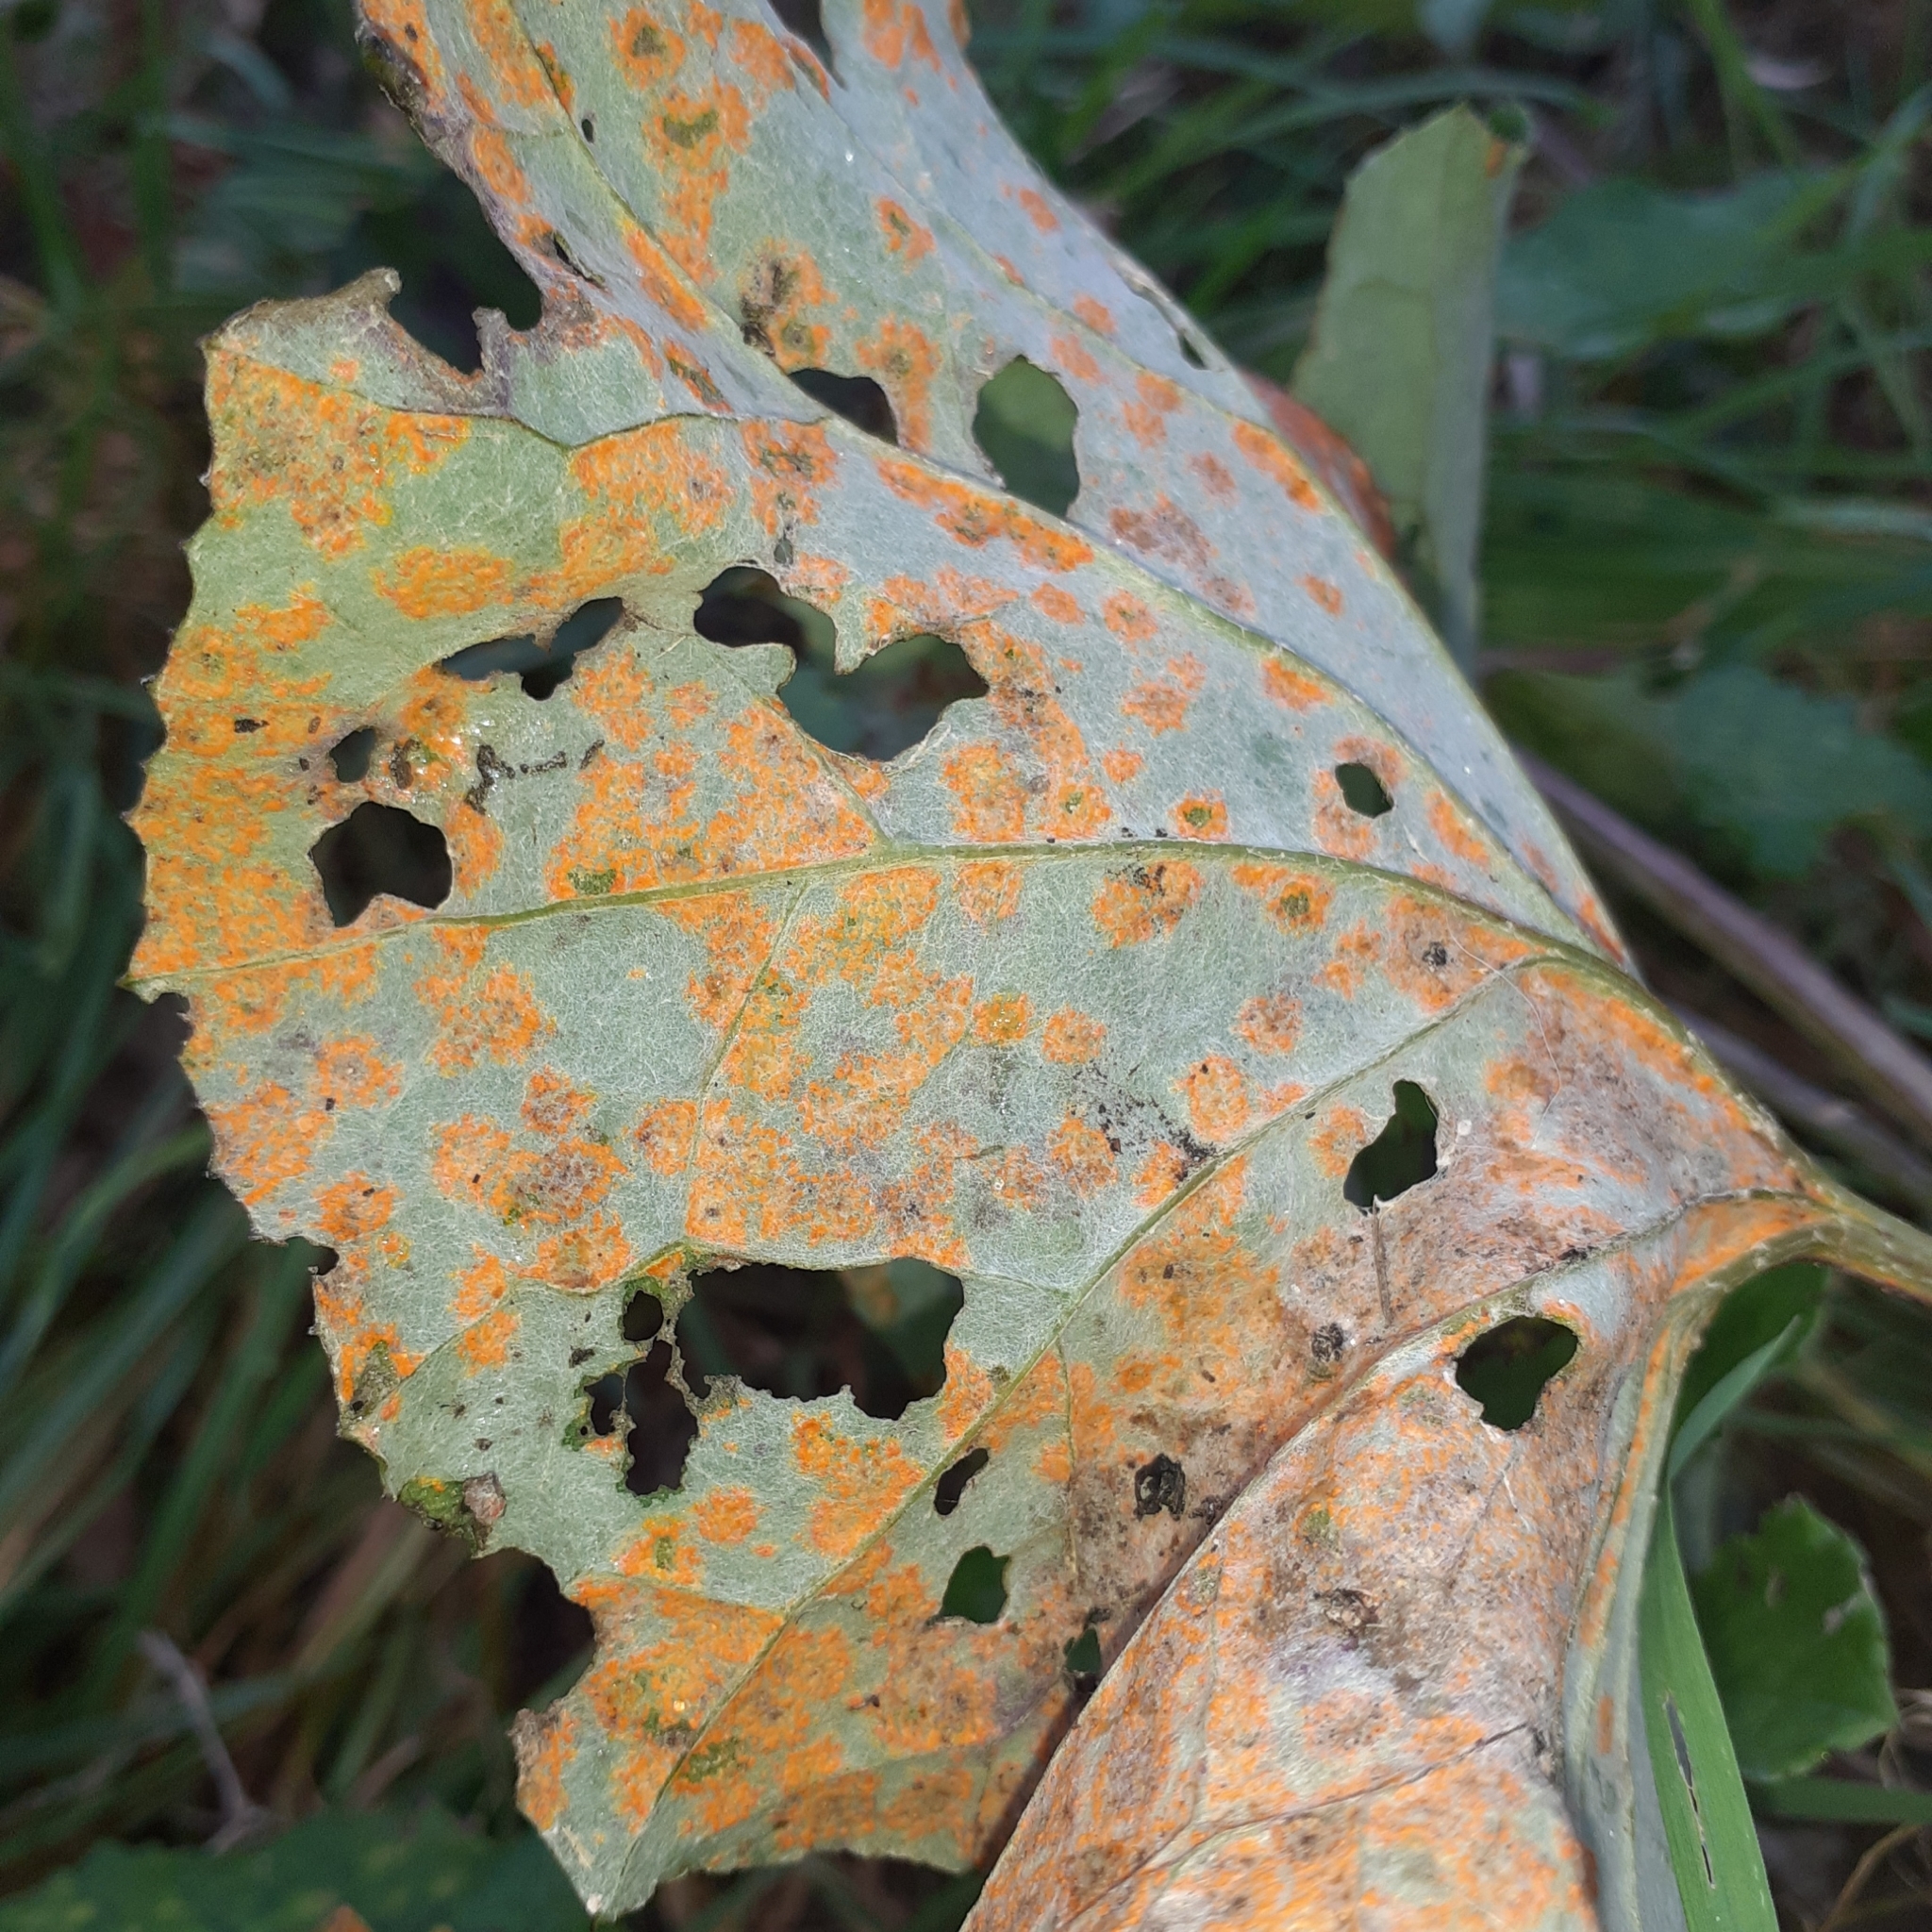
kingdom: Fungi
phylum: Basidiomycota
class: Pucciniomycetes
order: Pucciniales
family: Coleosporiaceae
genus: Coleosporium
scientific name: Coleosporium tussilaginis
